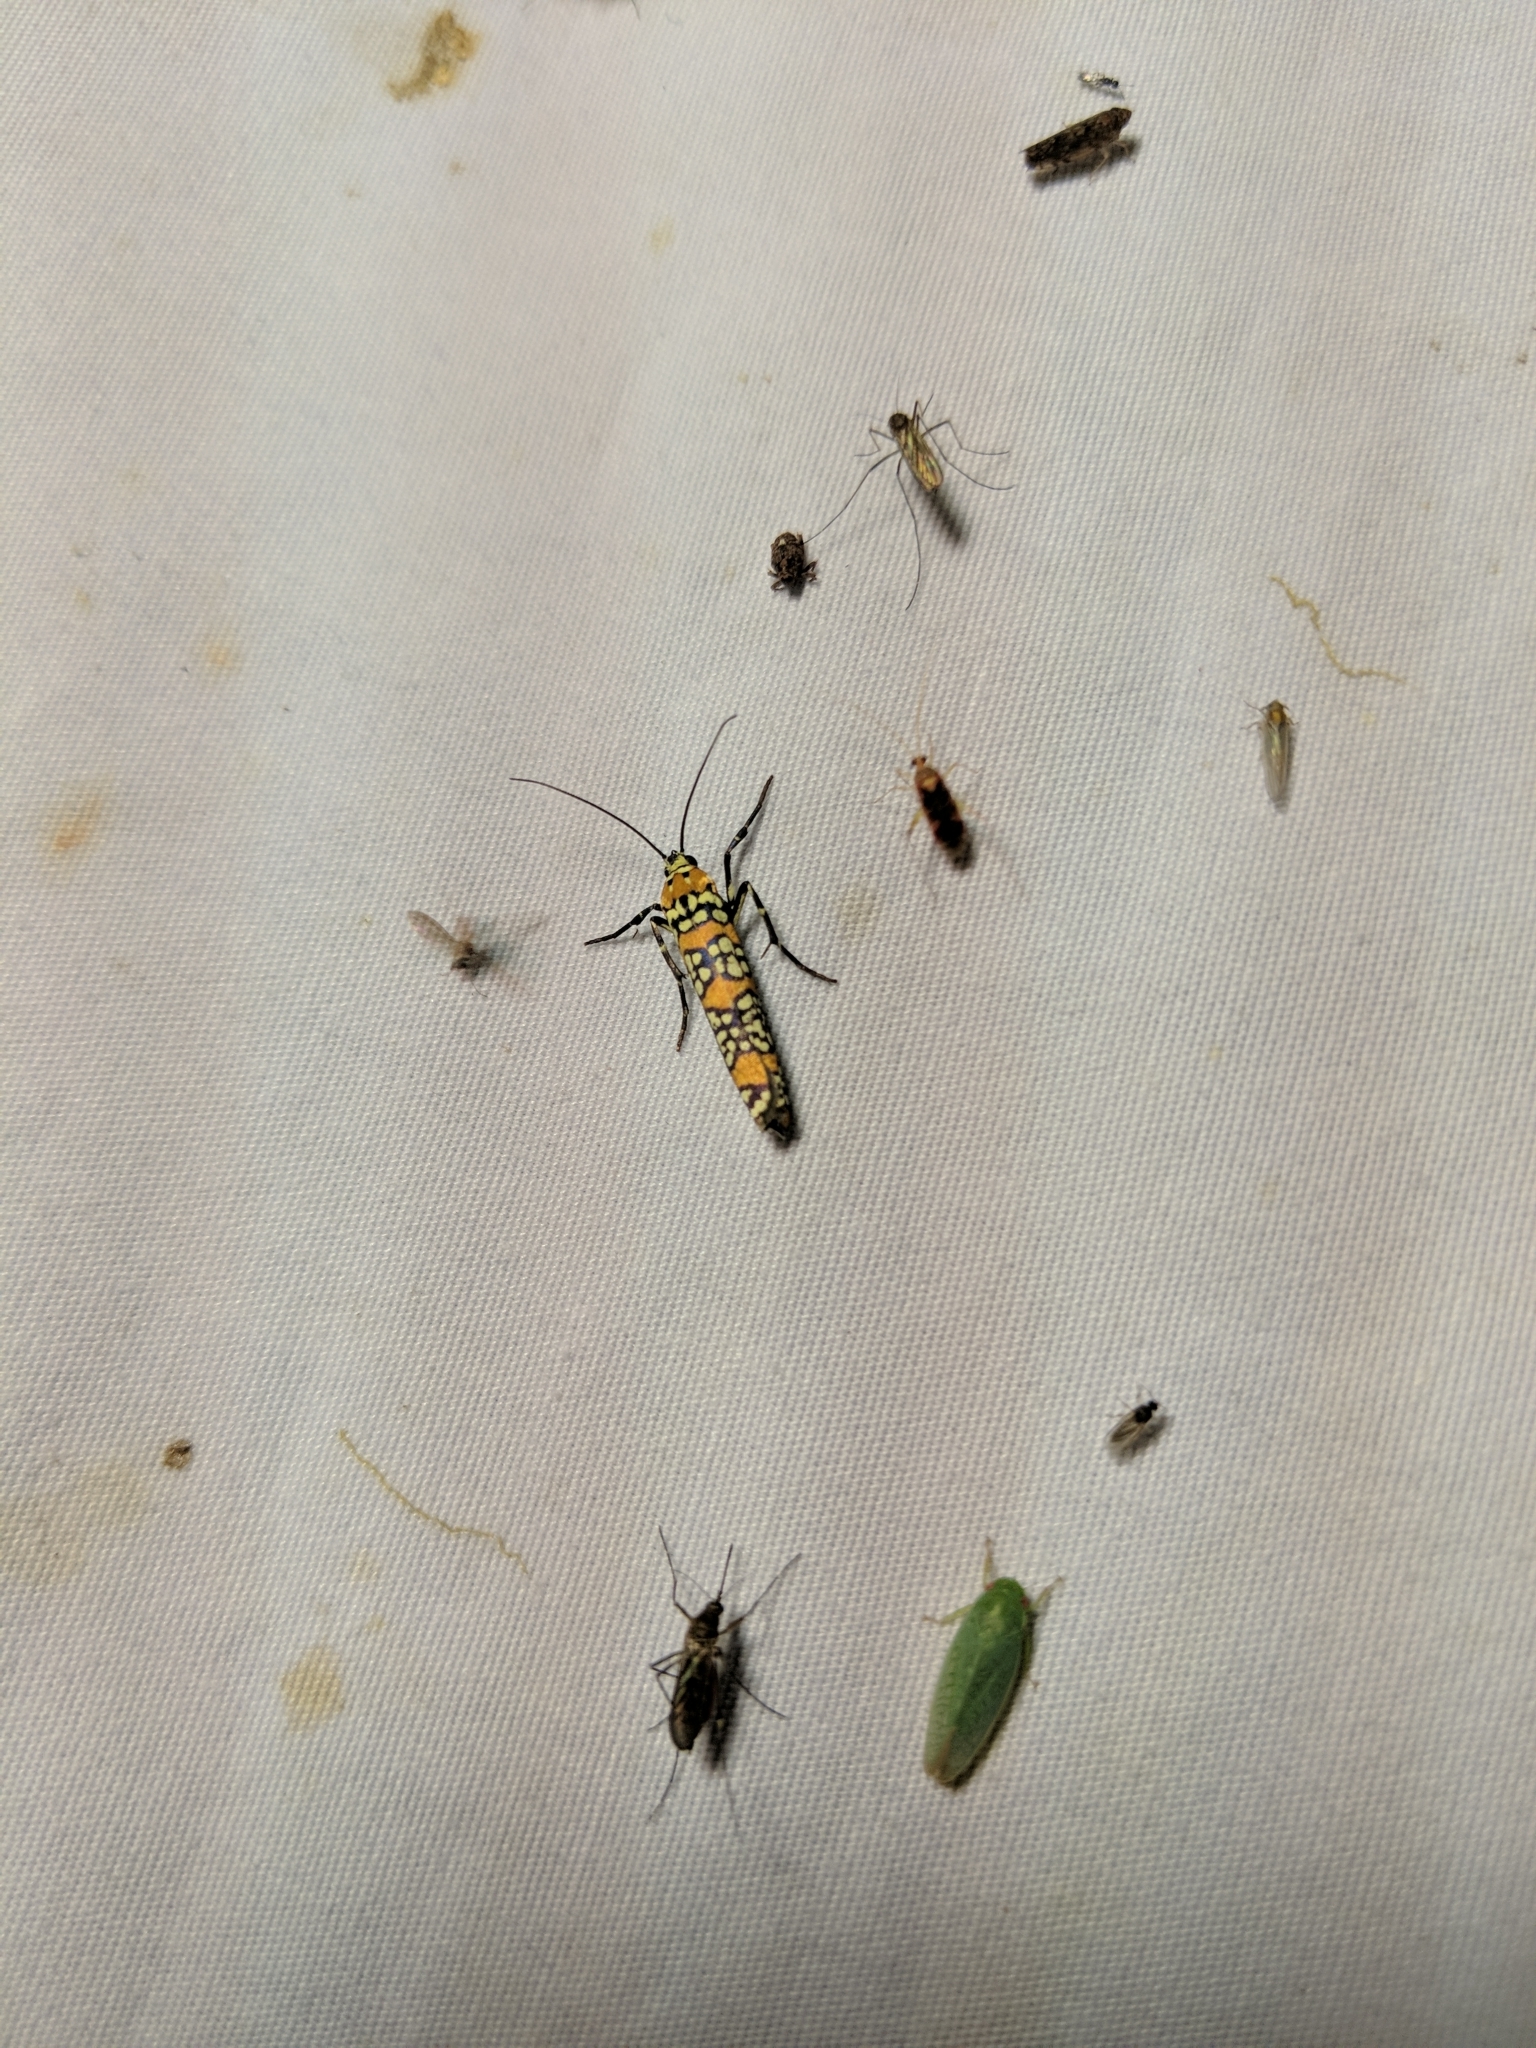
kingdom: Animalia
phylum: Arthropoda
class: Insecta
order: Lepidoptera
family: Attevidae
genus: Atteva
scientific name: Atteva punctella
